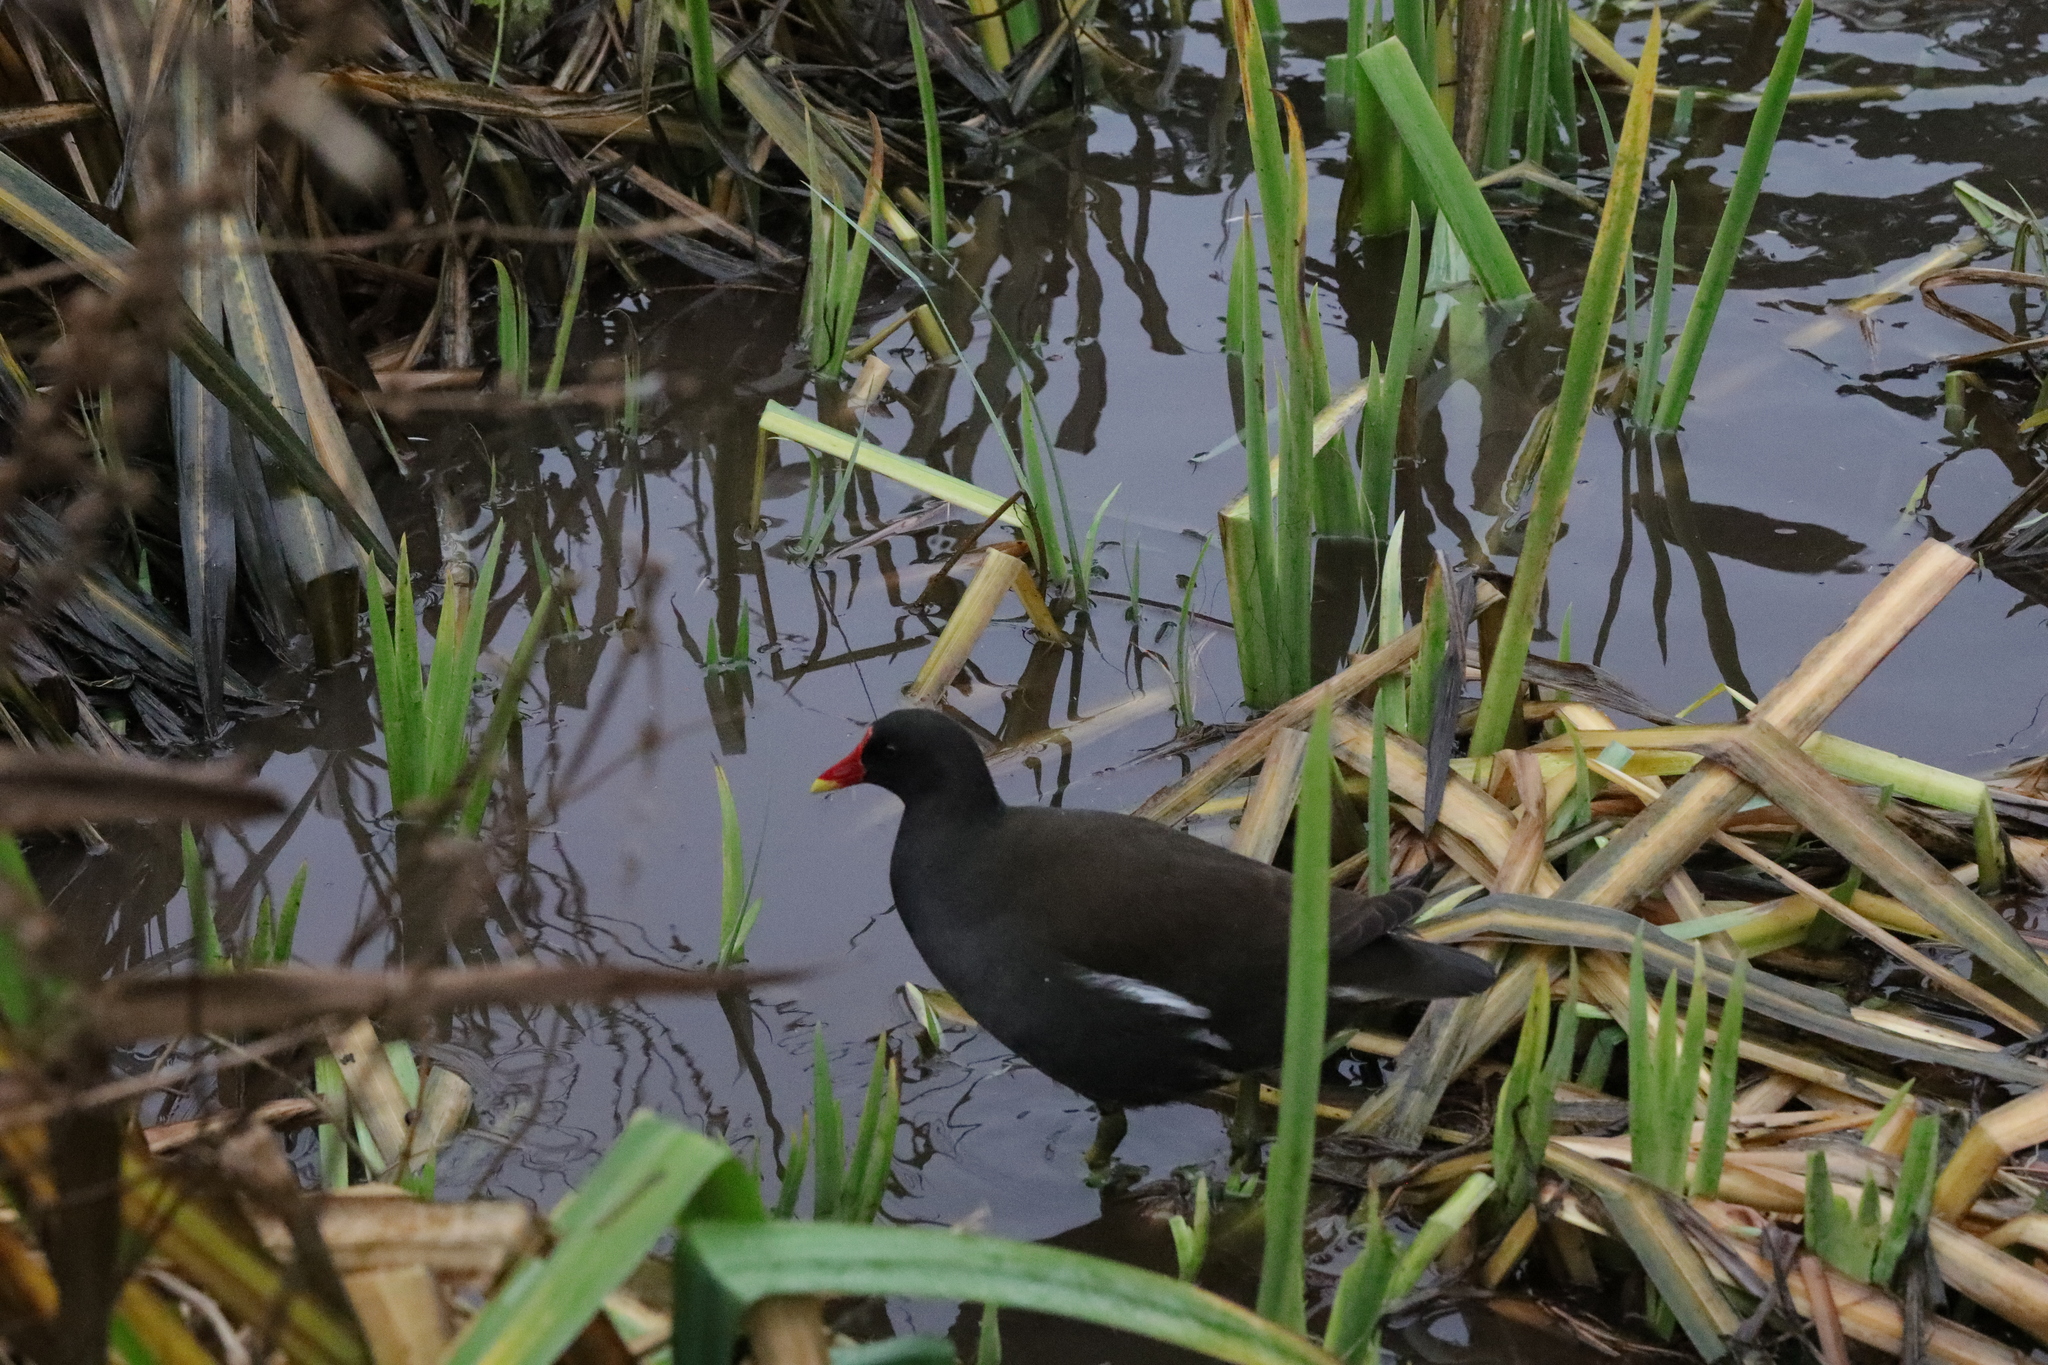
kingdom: Animalia
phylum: Chordata
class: Aves
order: Gruiformes
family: Rallidae
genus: Gallinula
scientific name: Gallinula chloropus
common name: Common moorhen
